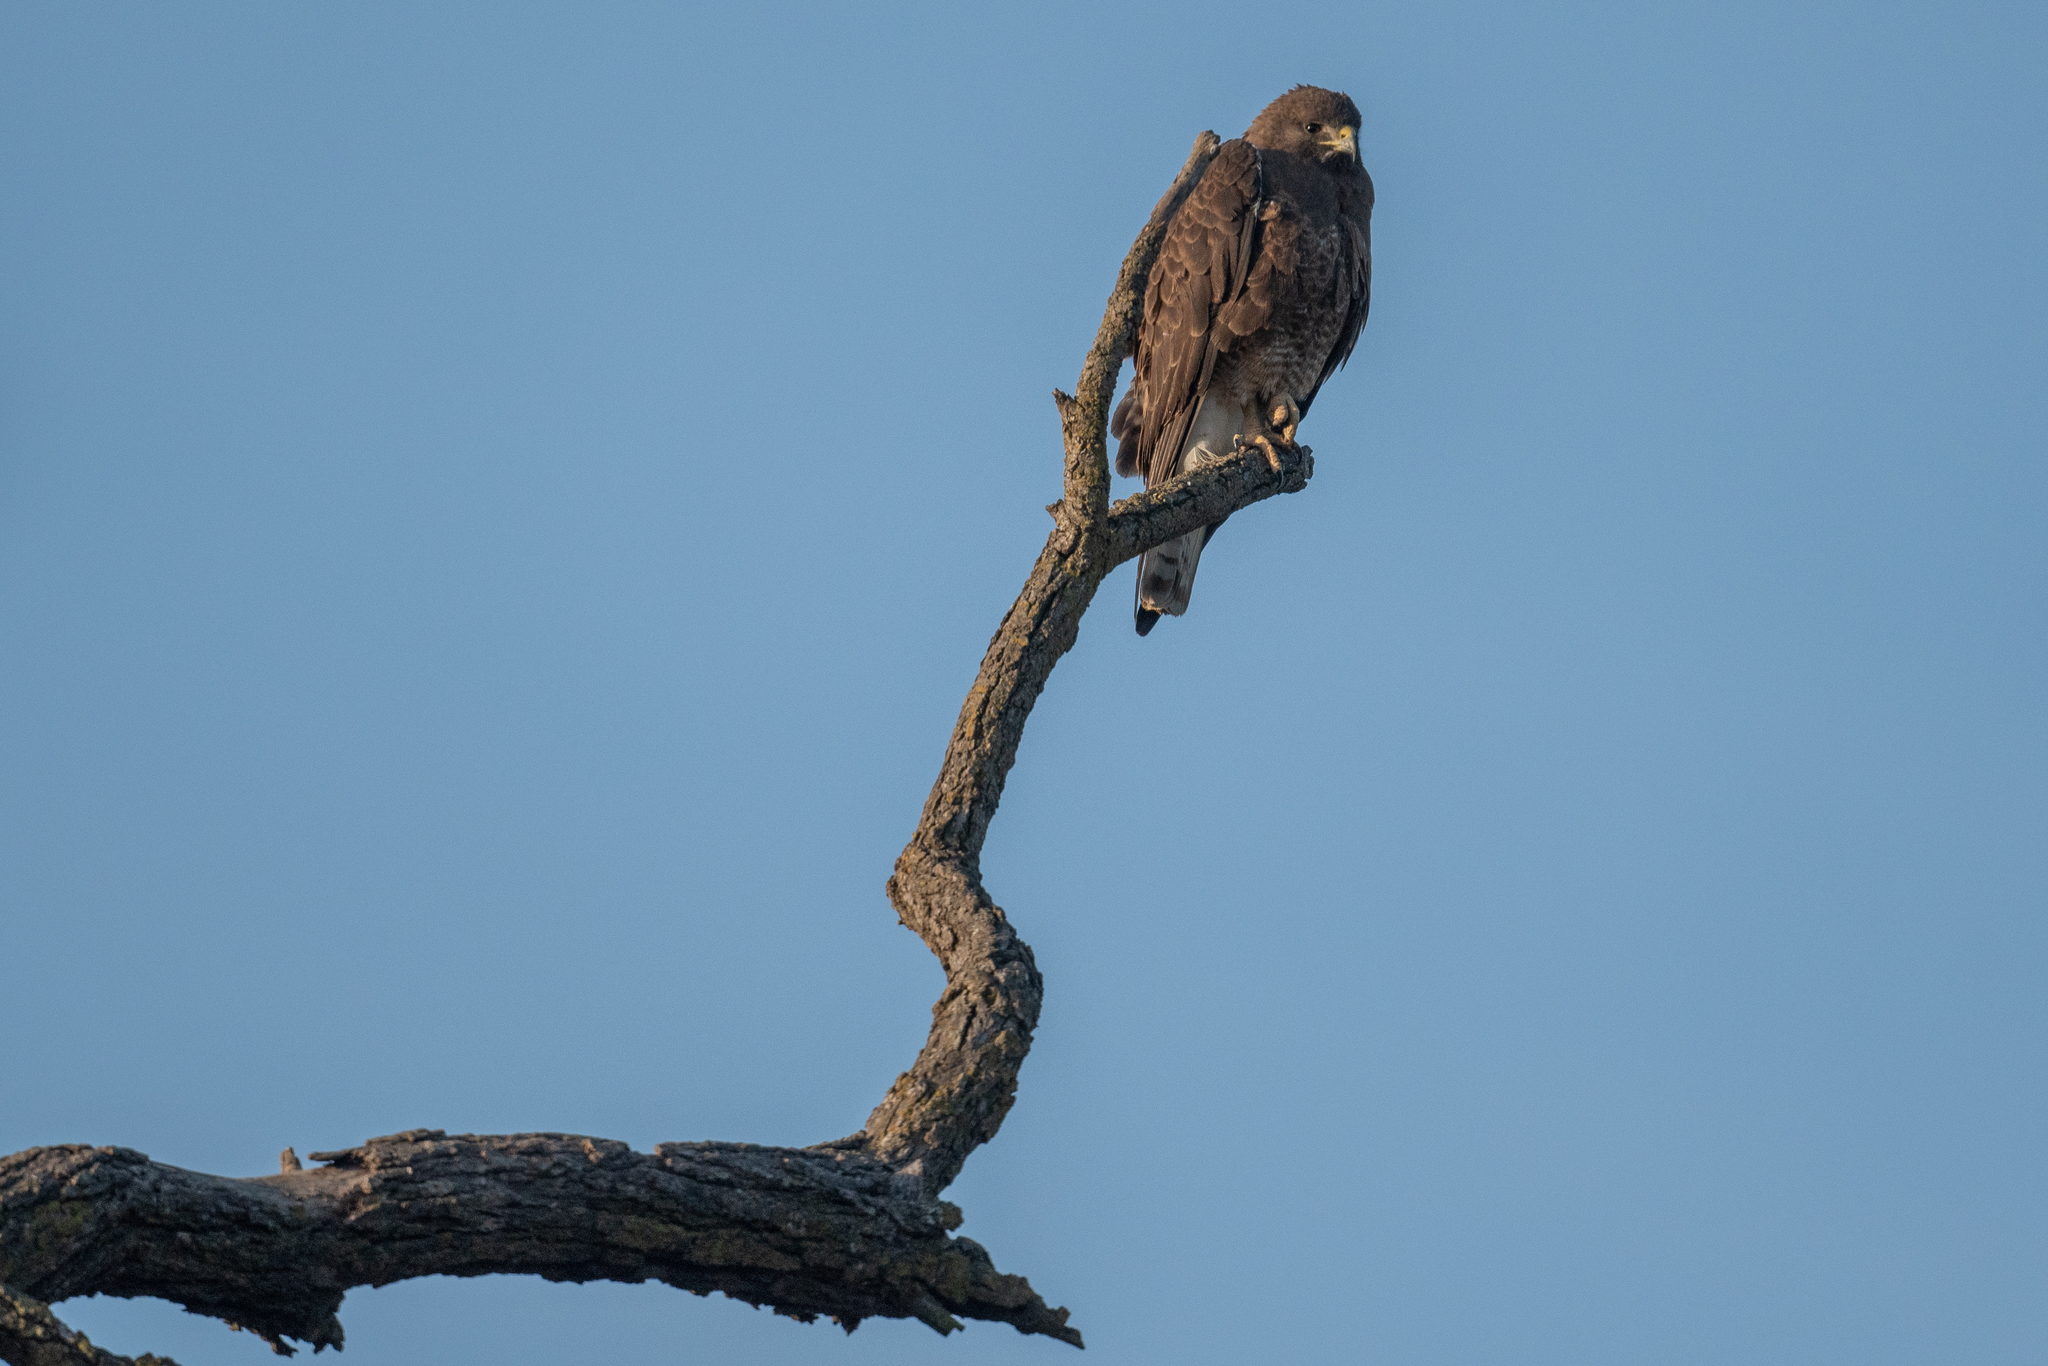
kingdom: Animalia
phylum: Chordata
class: Aves
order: Accipitriformes
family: Accipitridae
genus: Buteo
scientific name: Buteo swainsoni
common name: Swainson's hawk
